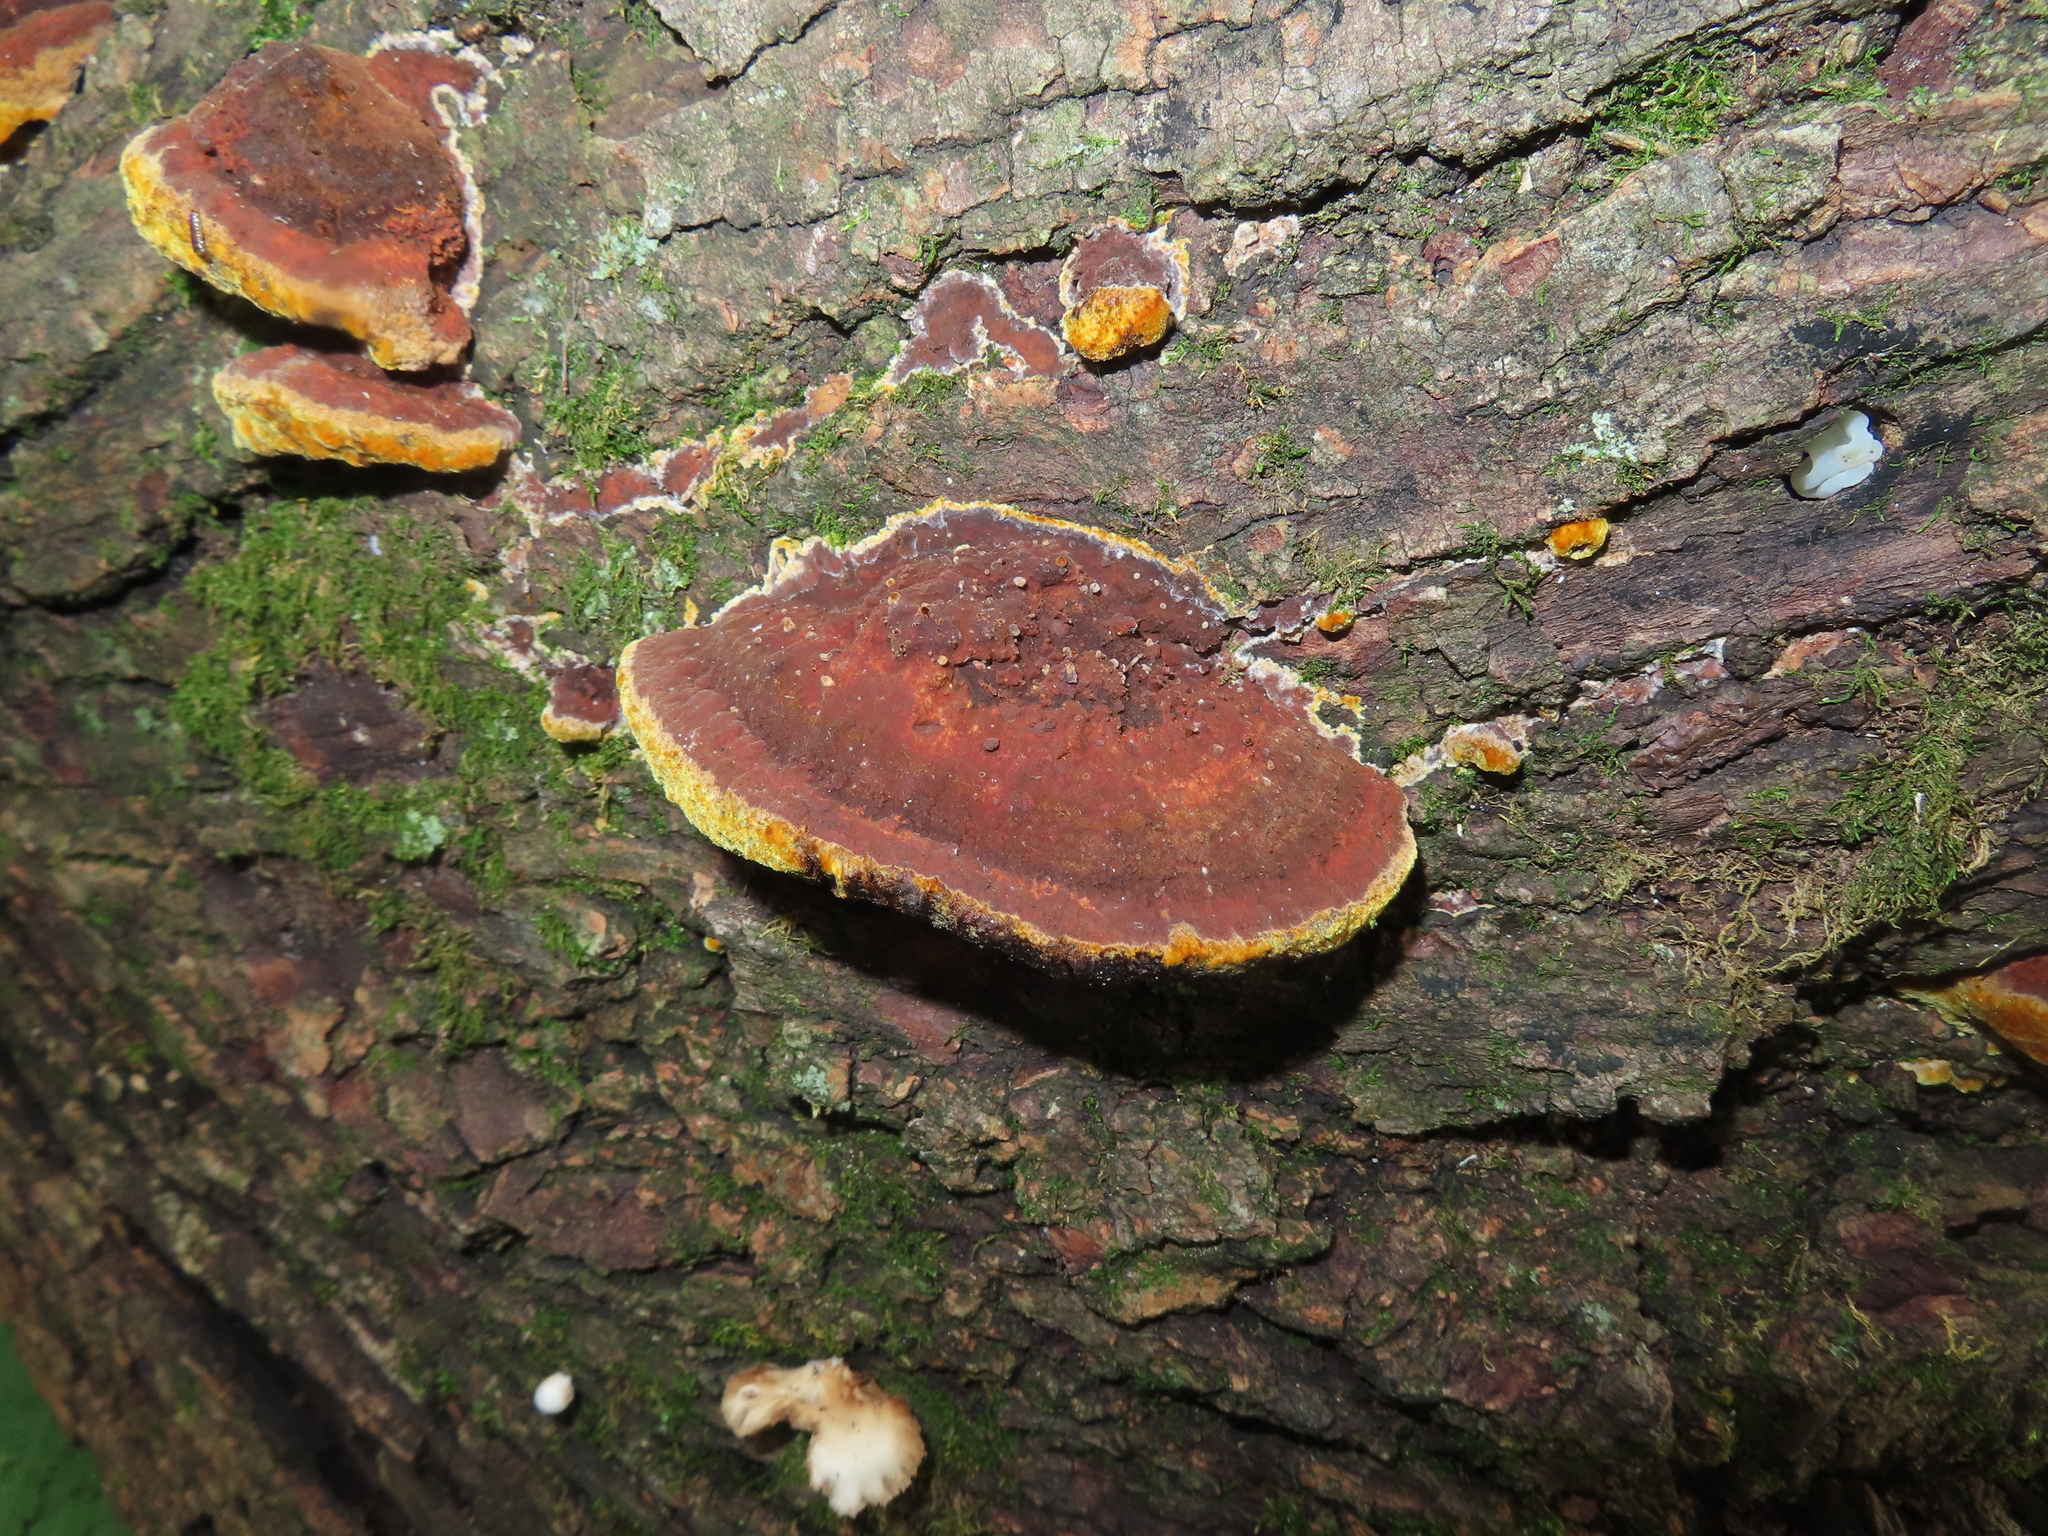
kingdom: Fungi
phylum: Basidiomycota
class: Agaricomycetes
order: Hymenochaetales
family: Hymenochaetaceae
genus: Phellinus
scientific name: Phellinus gilvus
